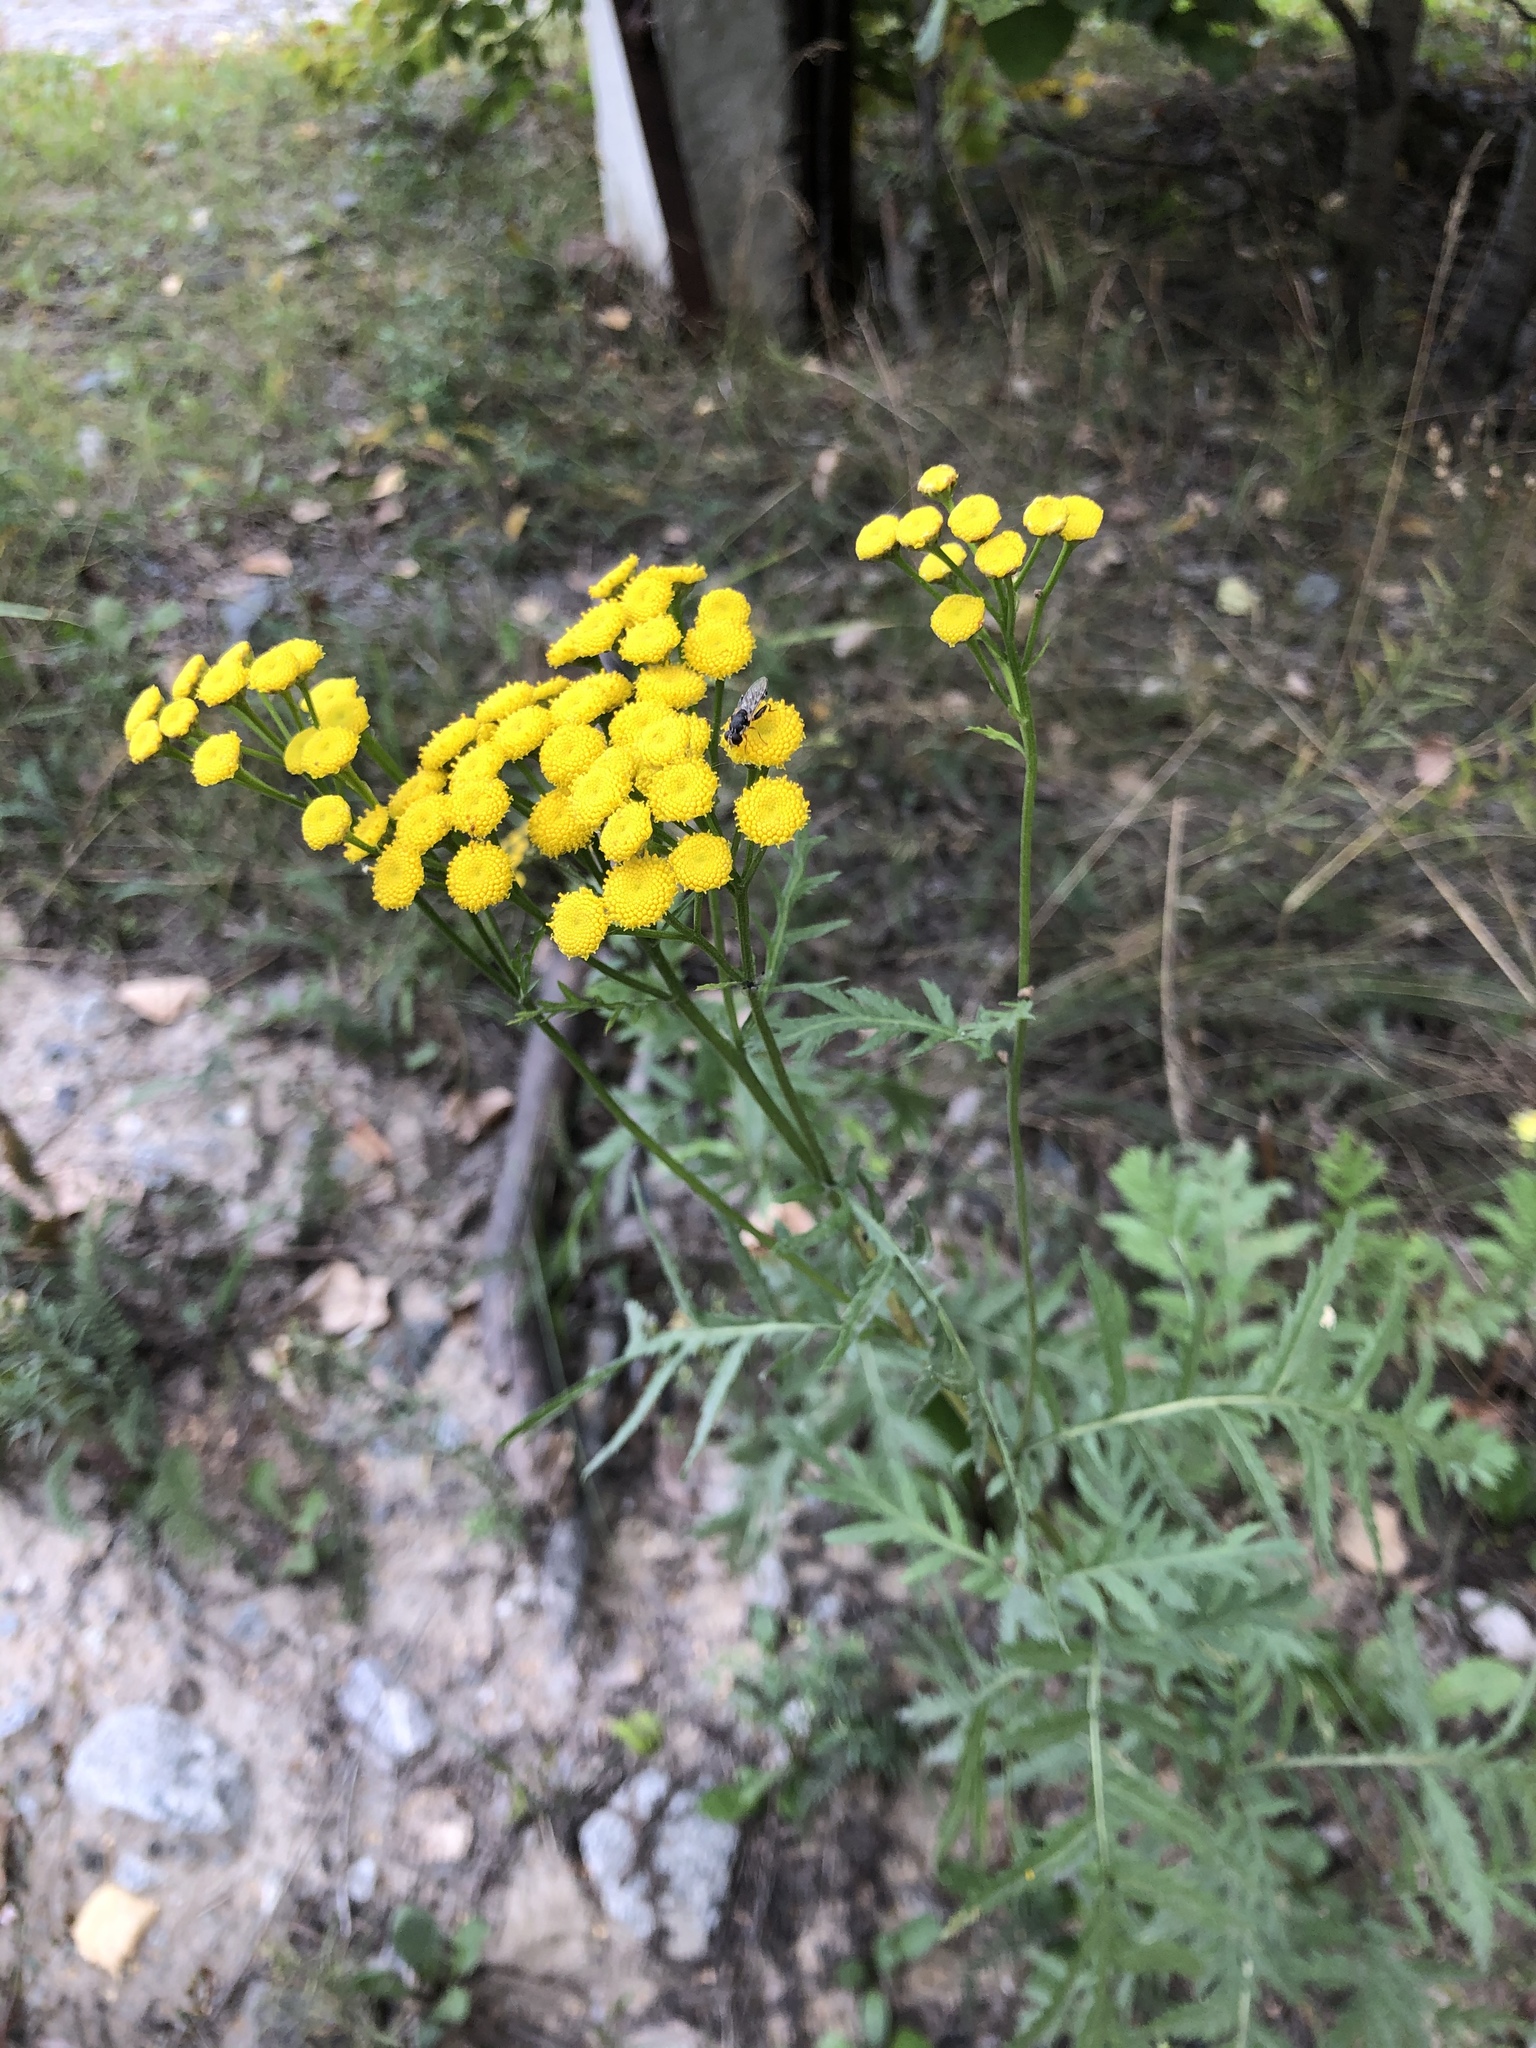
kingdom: Plantae
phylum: Tracheophyta
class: Magnoliopsida
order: Asterales
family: Asteraceae
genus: Tanacetum
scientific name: Tanacetum vulgare
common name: Common tansy
